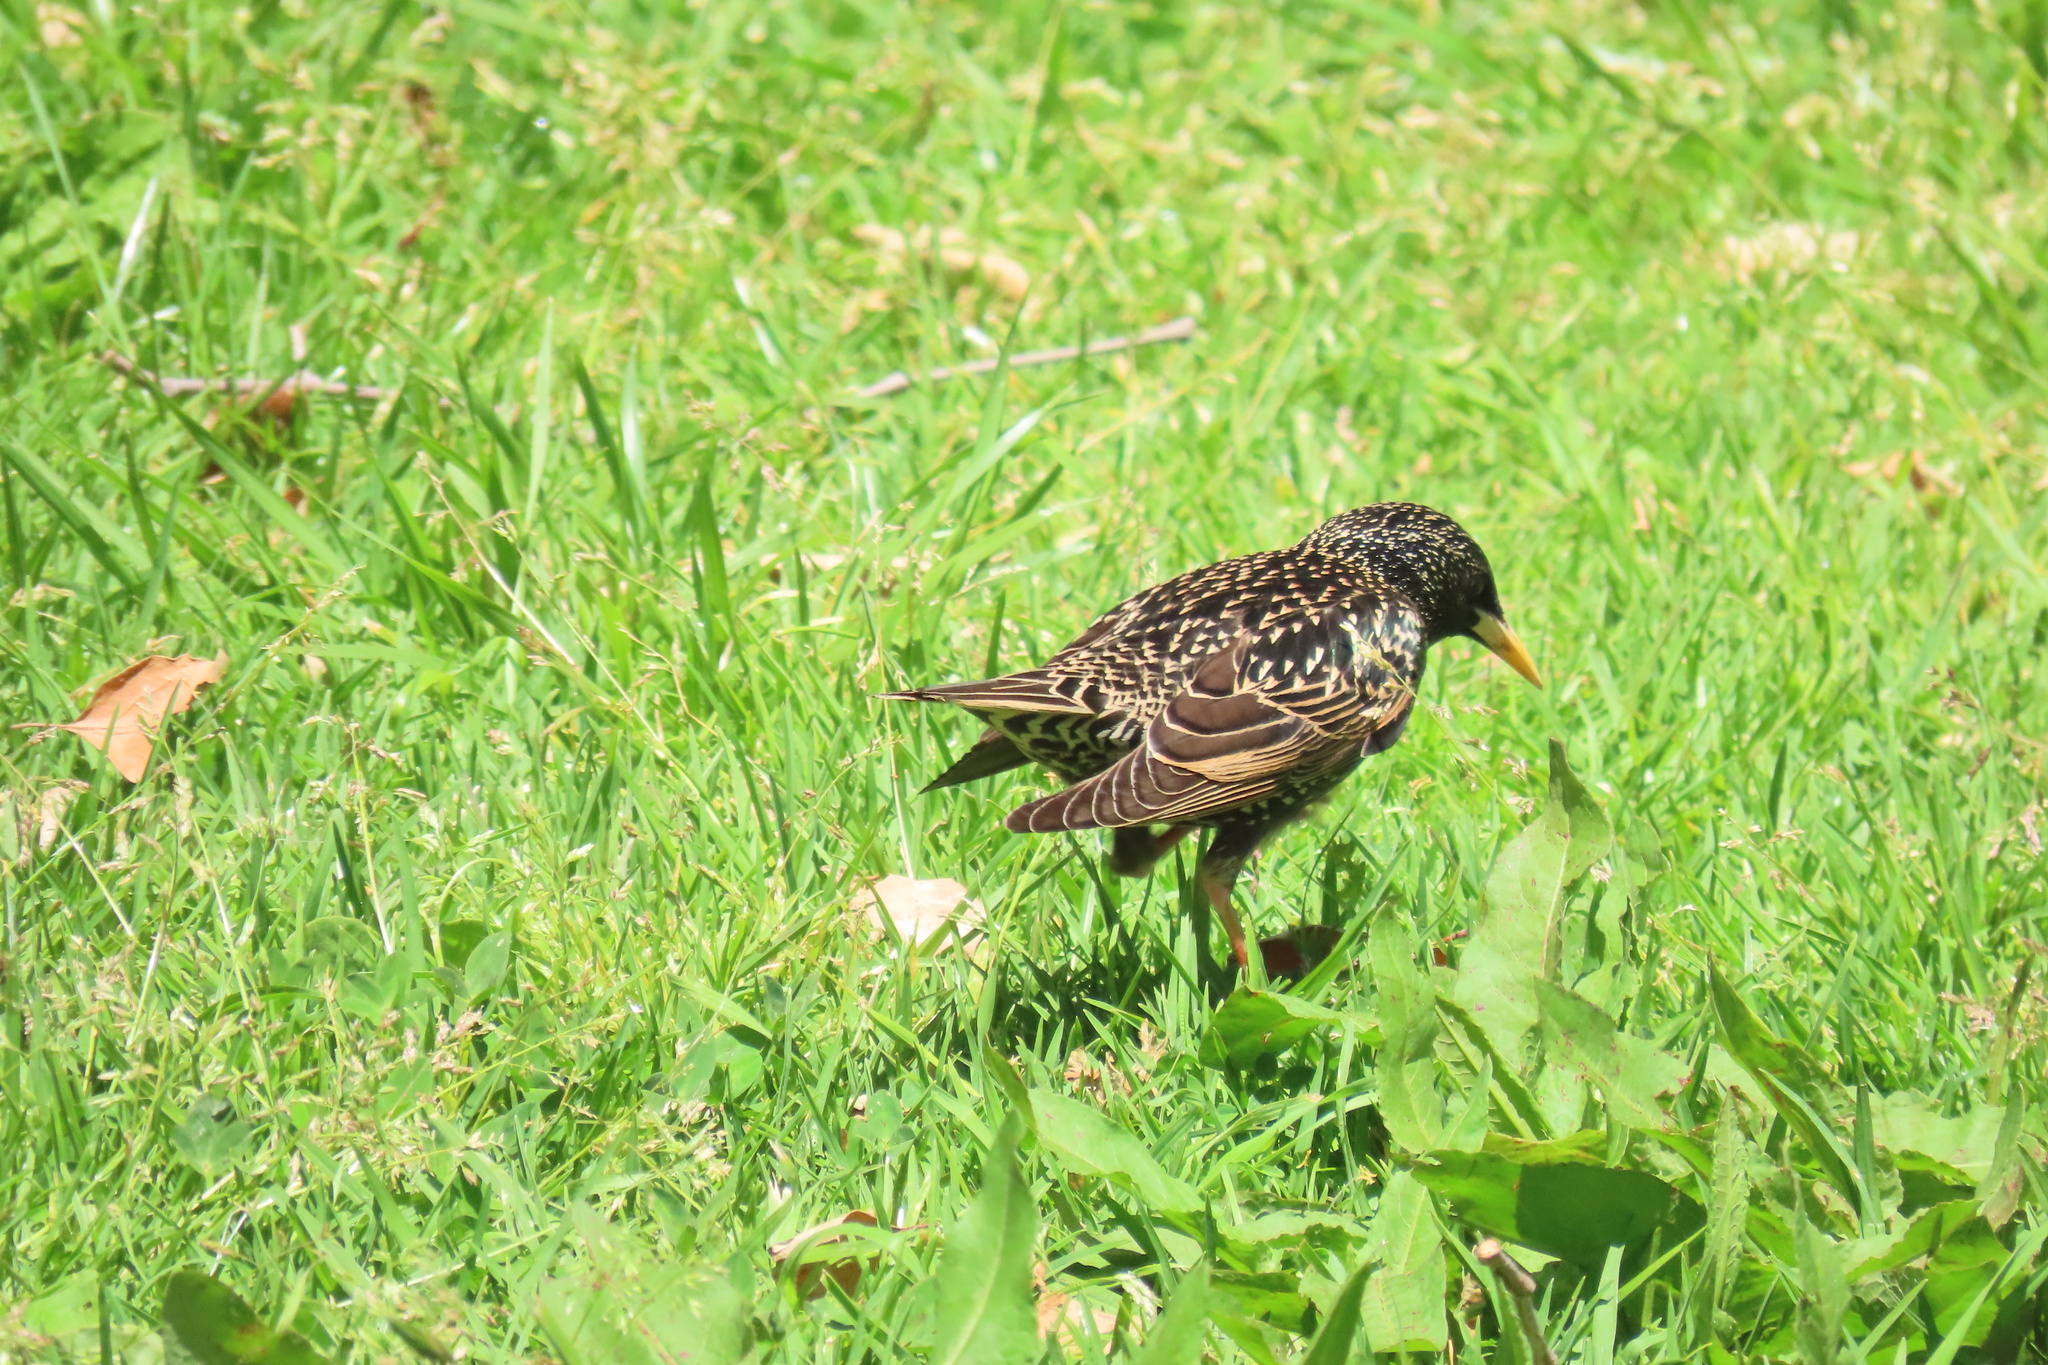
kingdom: Animalia
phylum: Chordata
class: Aves
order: Passeriformes
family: Sturnidae
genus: Sturnus
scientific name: Sturnus vulgaris
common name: Common starling
